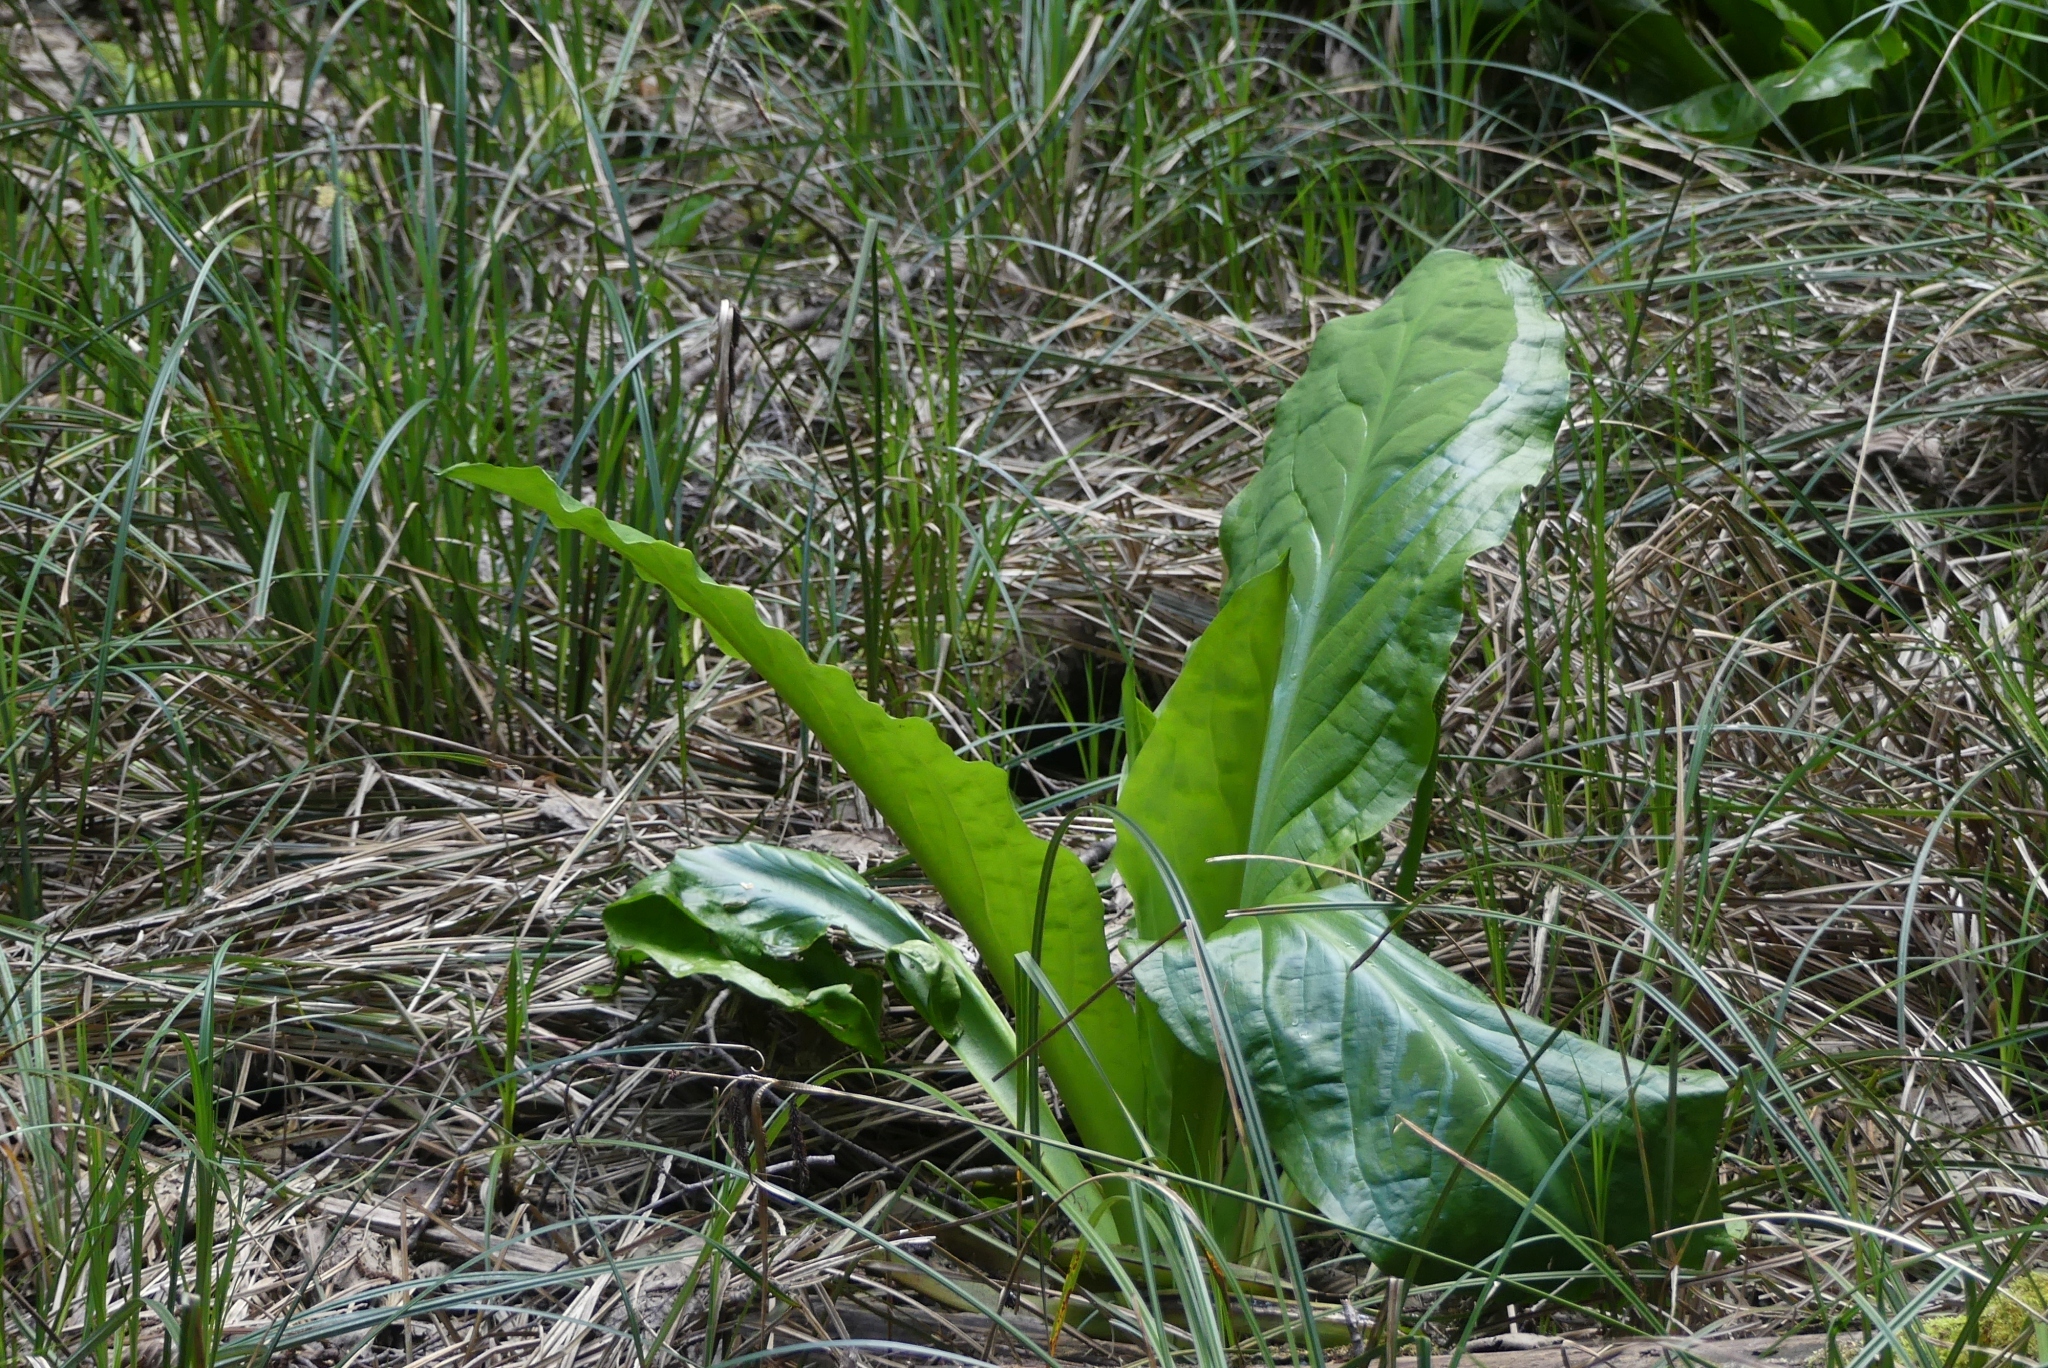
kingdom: Plantae
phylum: Tracheophyta
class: Liliopsida
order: Alismatales
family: Araceae
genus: Lysichiton
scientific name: Lysichiton americanus
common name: American skunk cabbage
